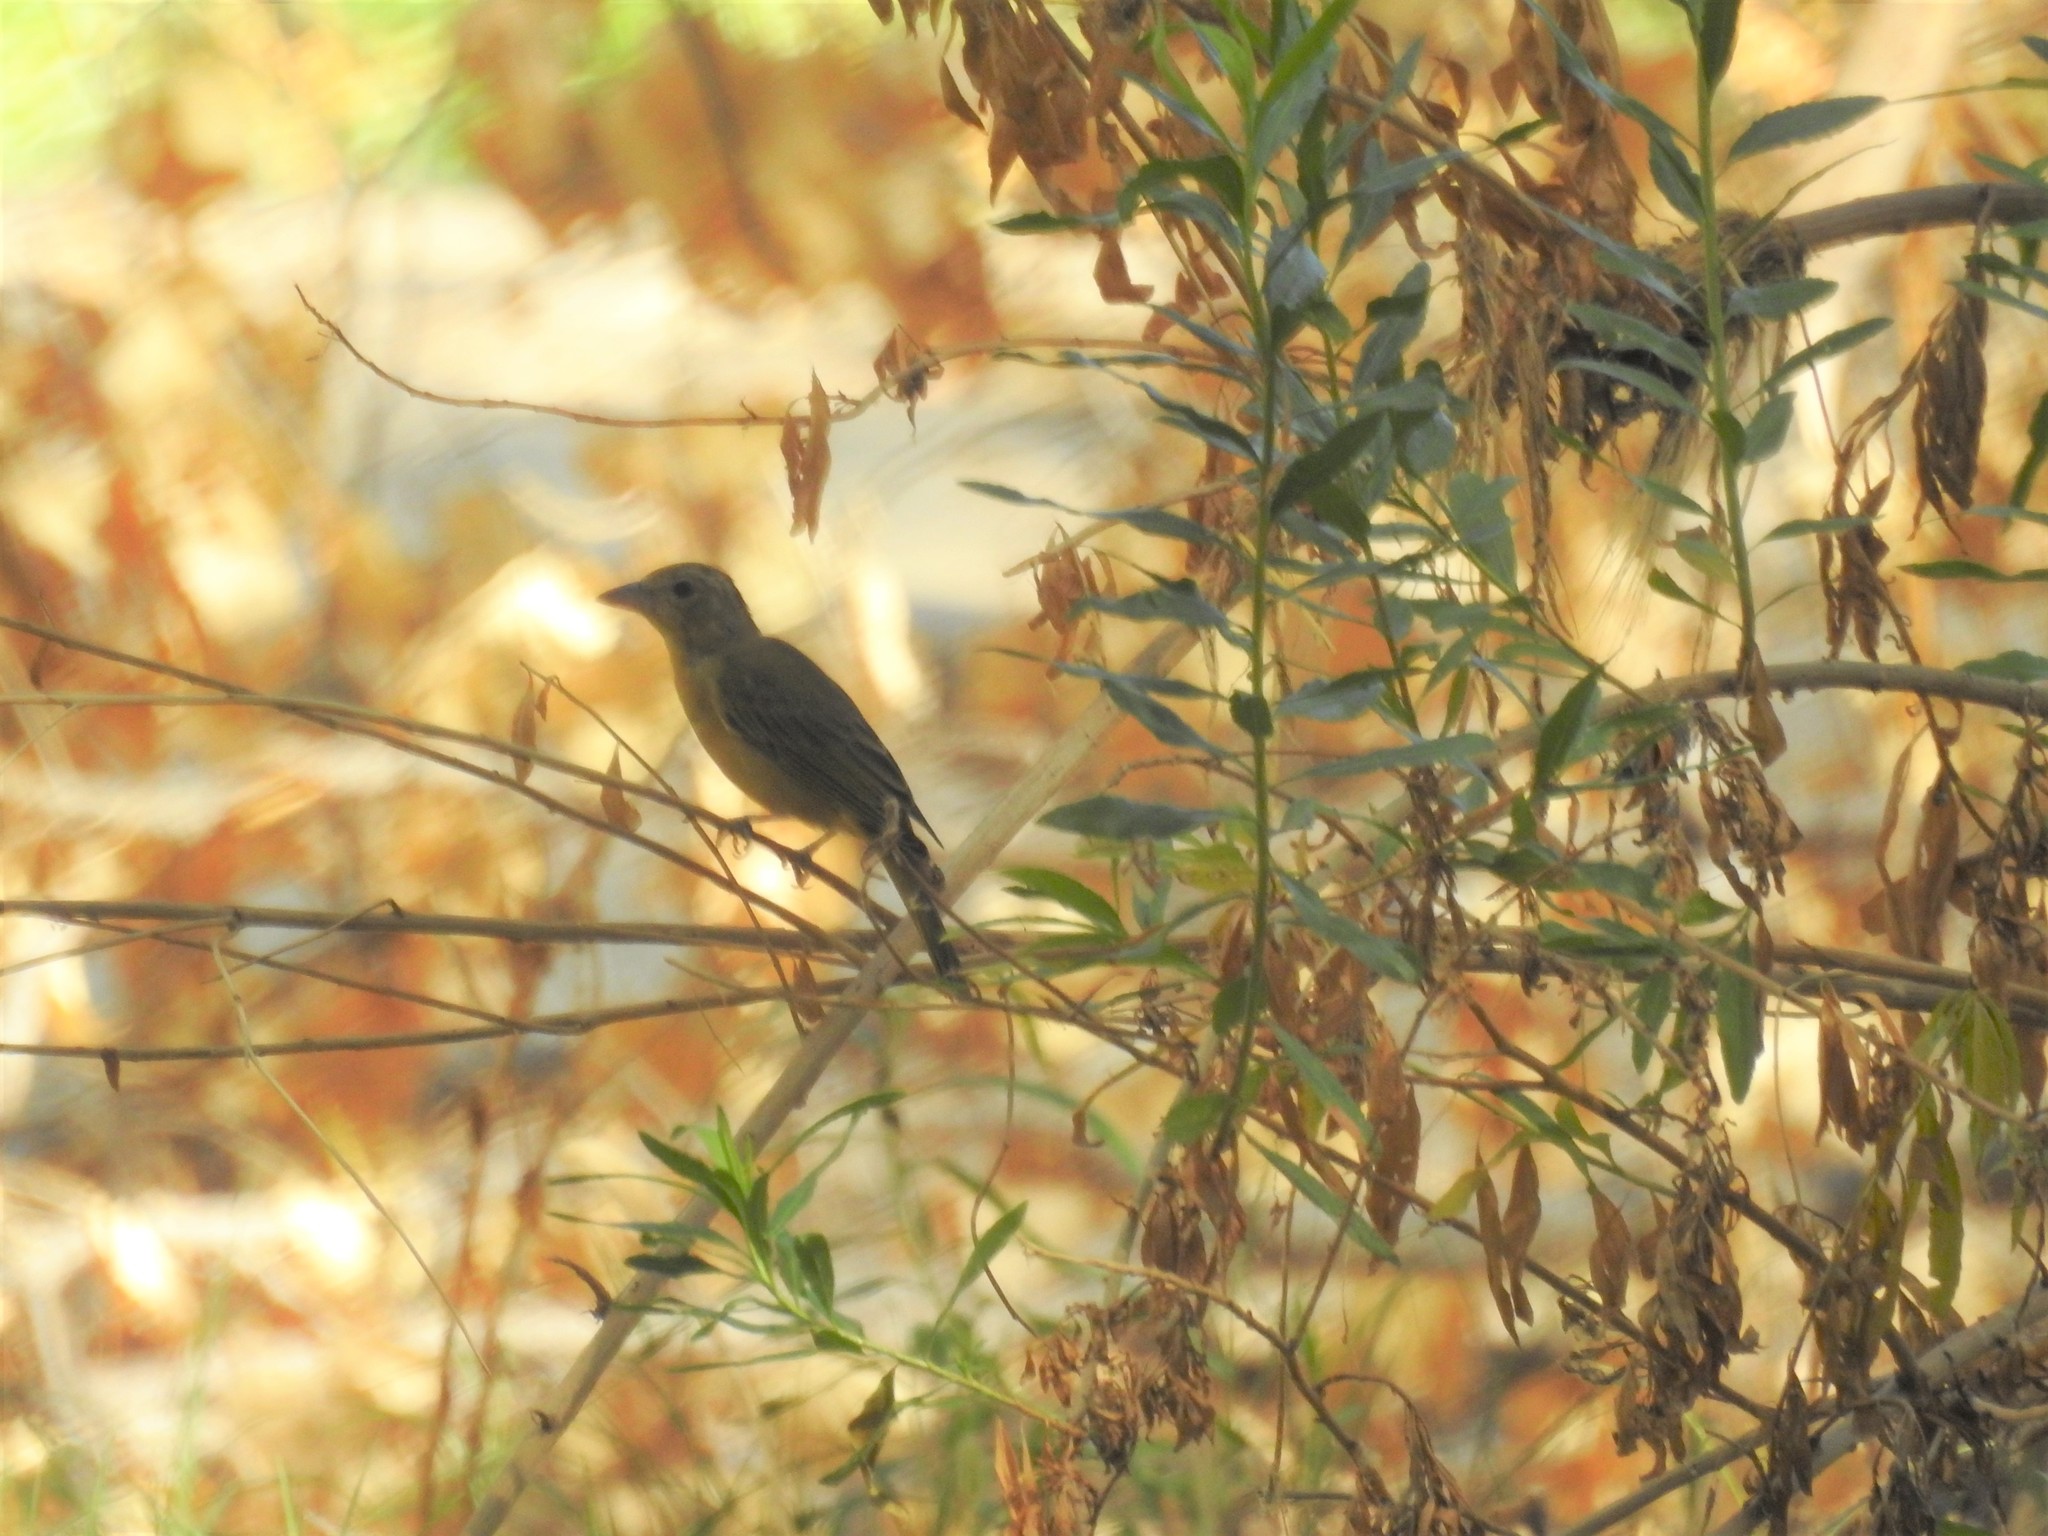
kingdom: Animalia
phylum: Chordata
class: Aves
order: Passeriformes
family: Cardinalidae
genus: Piranga
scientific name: Piranga rubra
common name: Summer tanager
